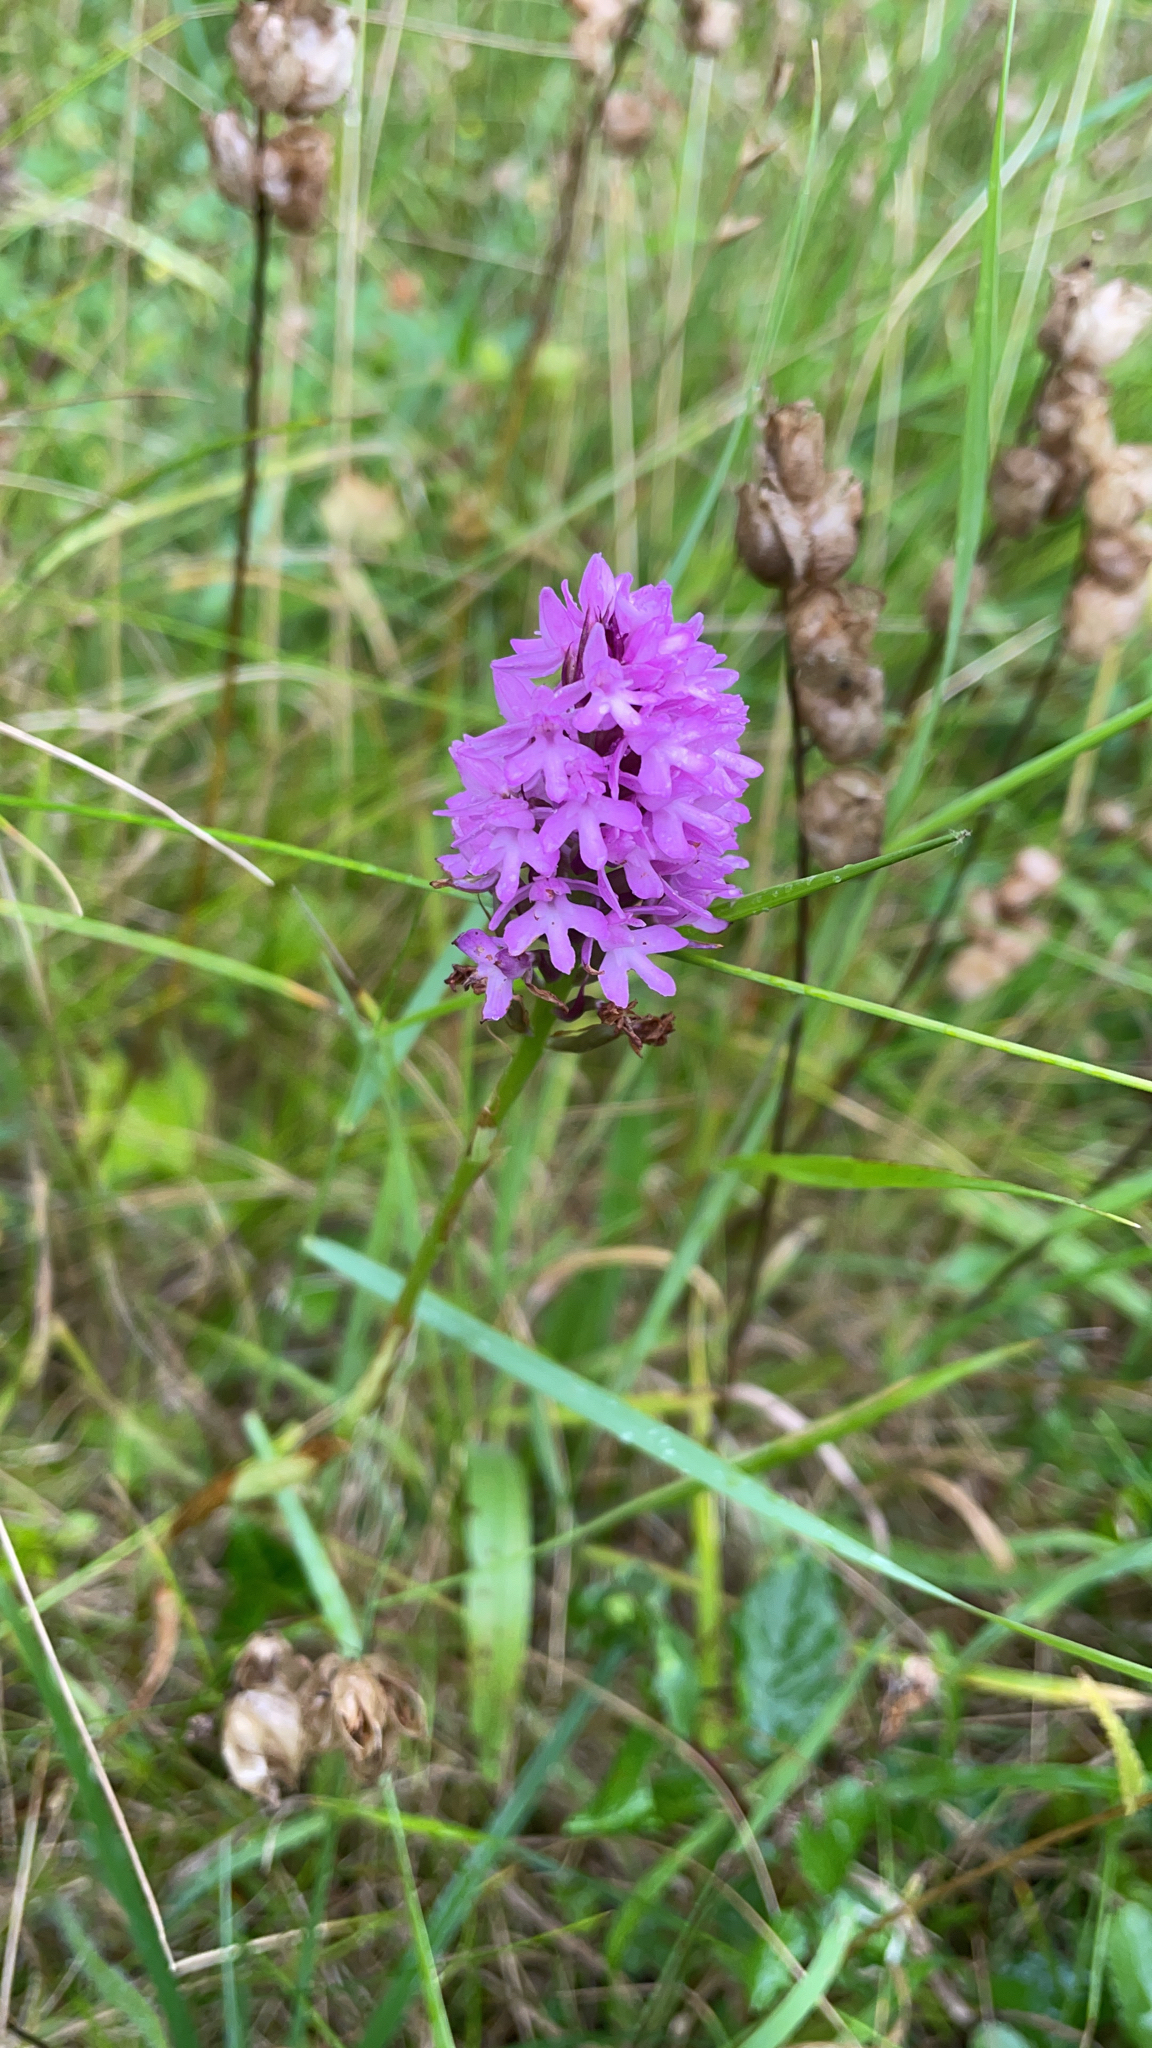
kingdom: Plantae
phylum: Tracheophyta
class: Liliopsida
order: Asparagales
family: Orchidaceae
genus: Anacamptis
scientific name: Anacamptis pyramidalis
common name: Pyramidal orchid
